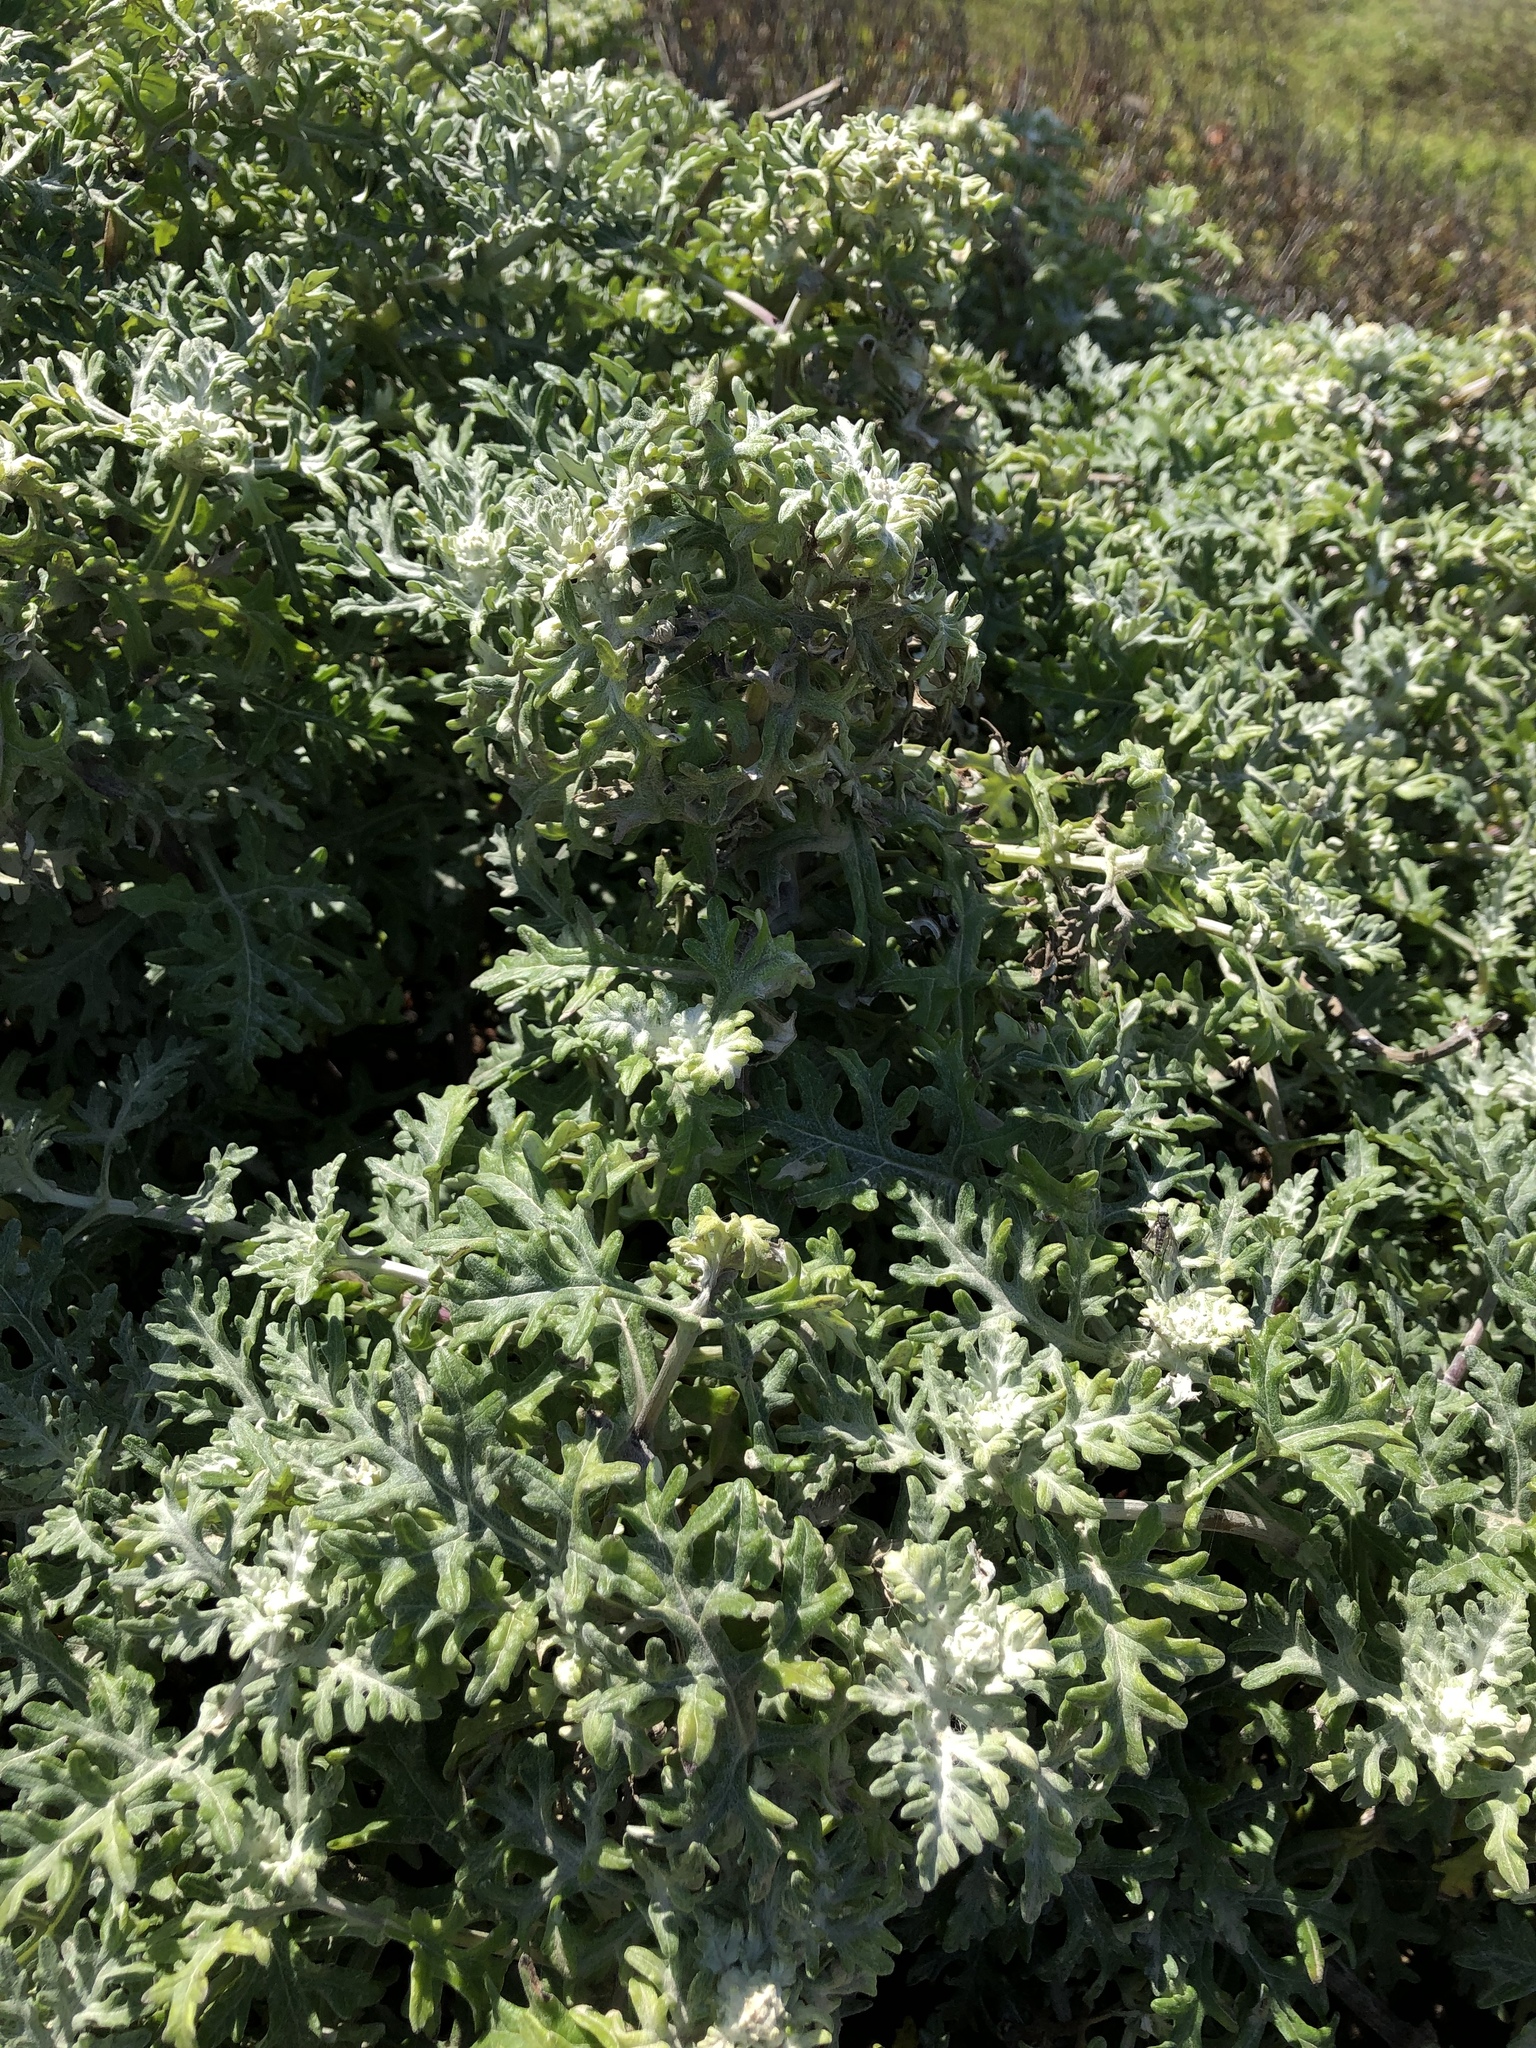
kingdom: Plantae
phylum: Tracheophyta
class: Magnoliopsida
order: Asterales
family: Asteraceae
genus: Eriophyllum
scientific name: Eriophyllum staechadifolium
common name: Lizardtail
